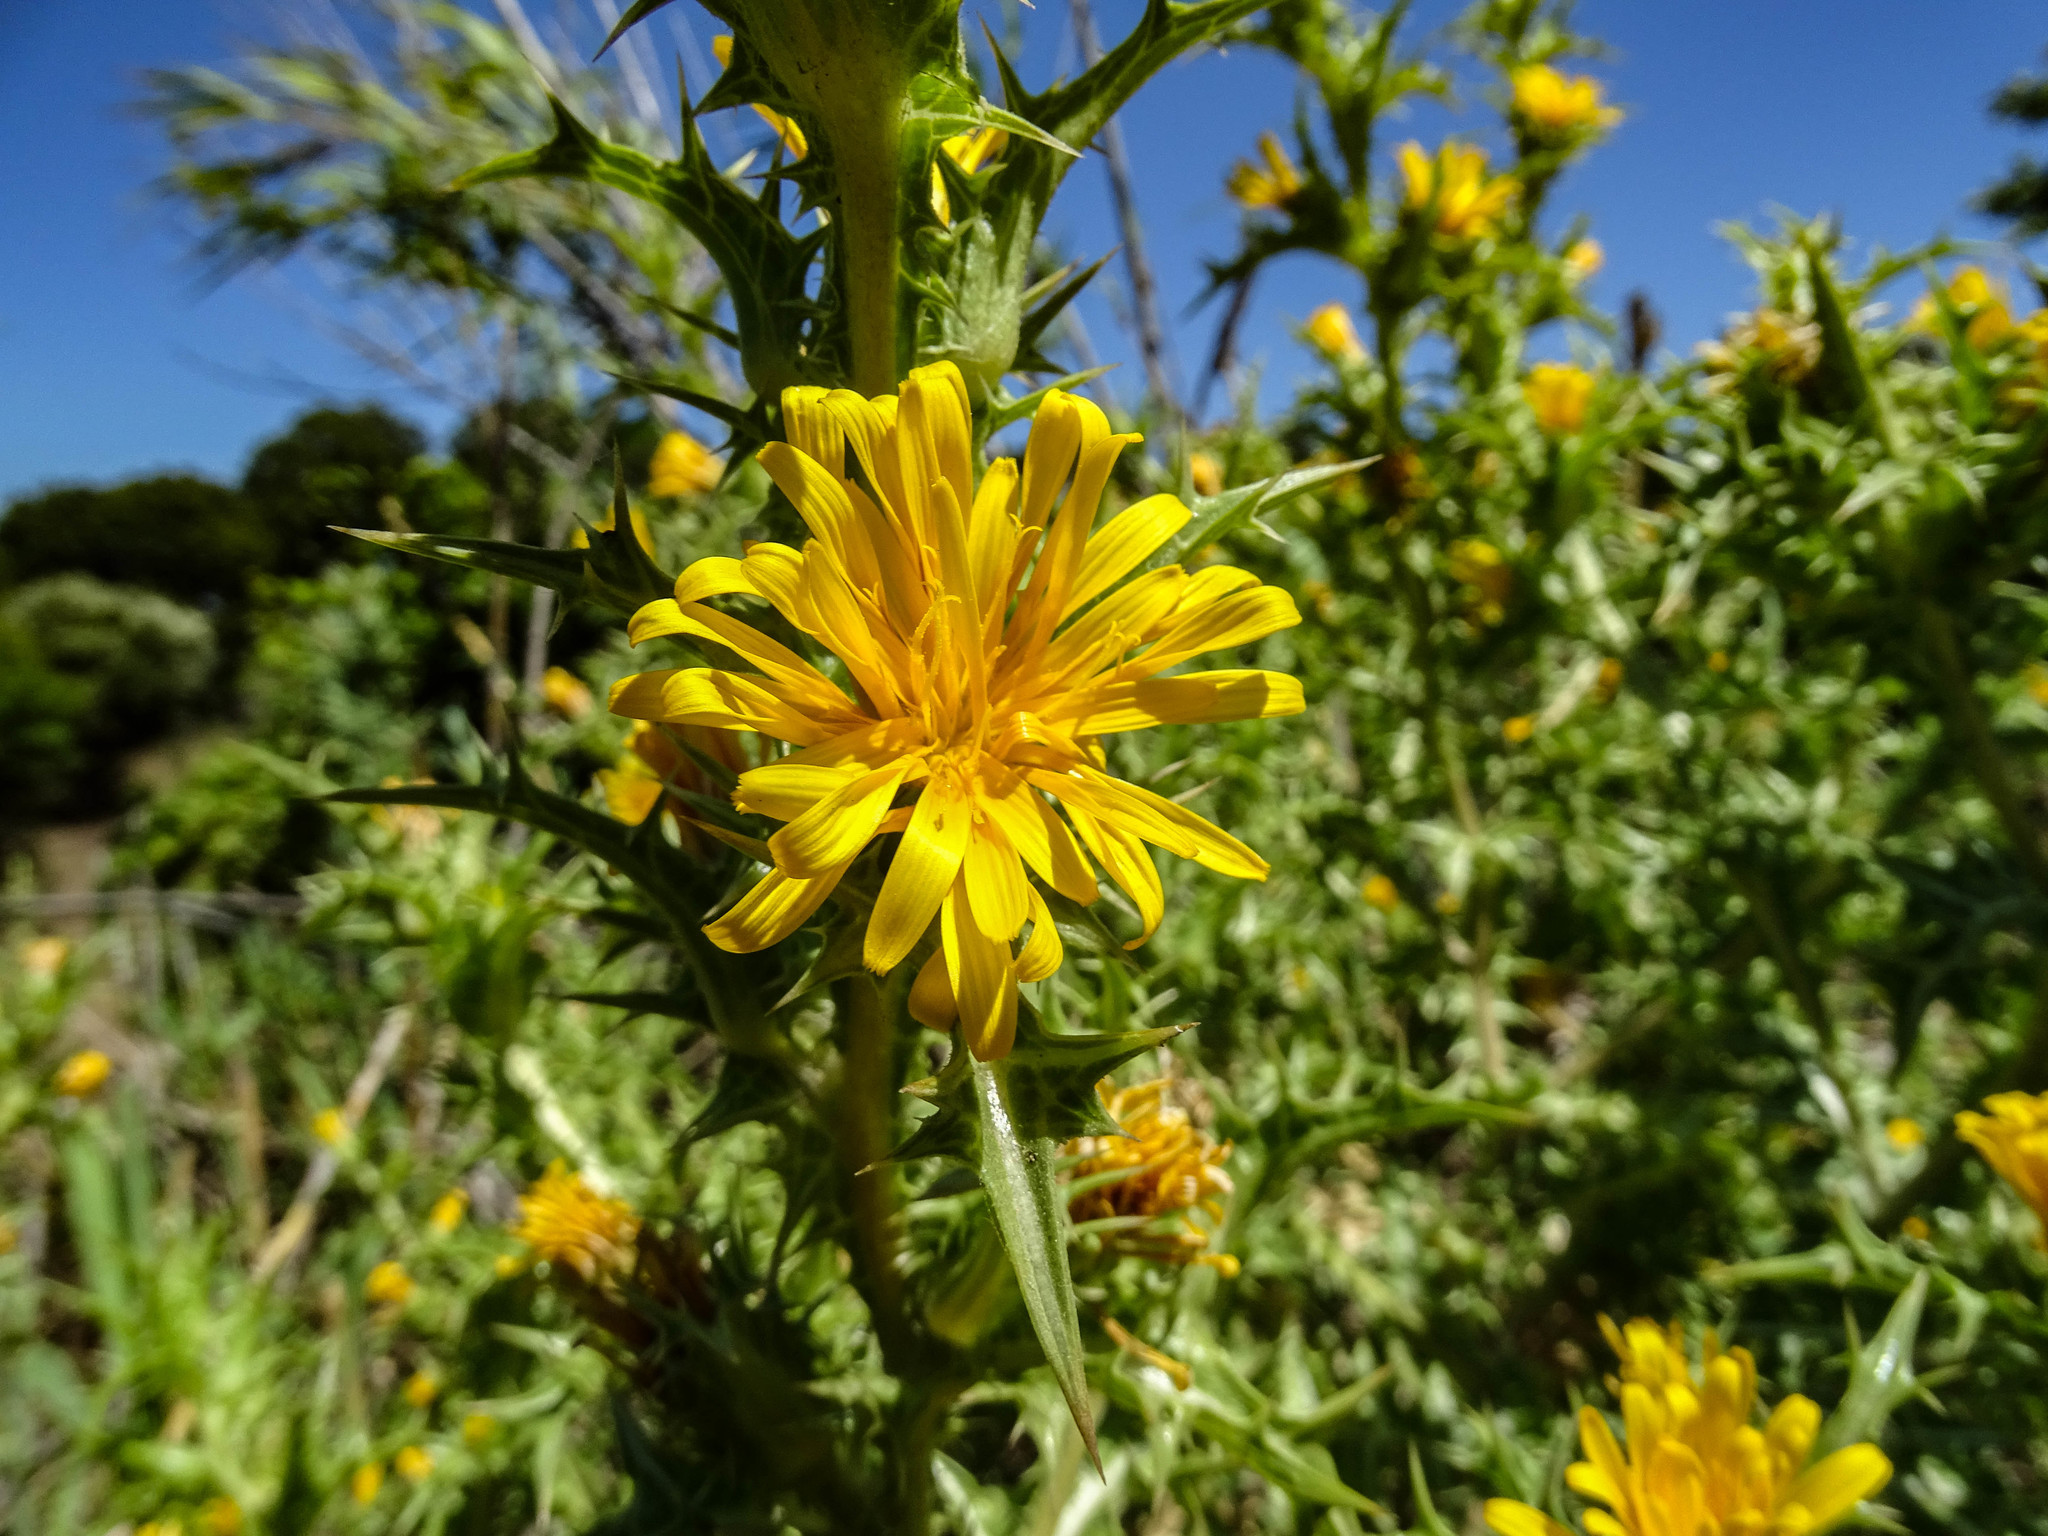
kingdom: Plantae
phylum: Tracheophyta
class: Magnoliopsida
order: Asterales
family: Asteraceae
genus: Scolymus
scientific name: Scolymus hispanicus
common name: Golden thistle
